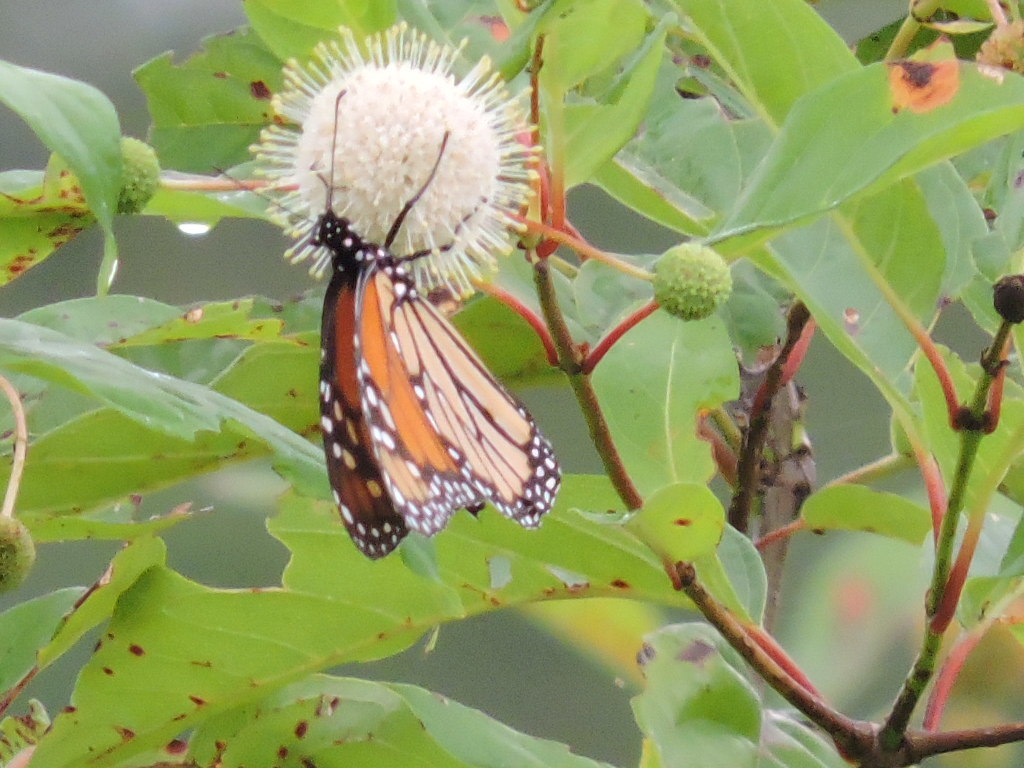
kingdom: Animalia
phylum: Arthropoda
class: Insecta
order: Lepidoptera
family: Nymphalidae
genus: Danaus
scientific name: Danaus plexippus
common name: Monarch
